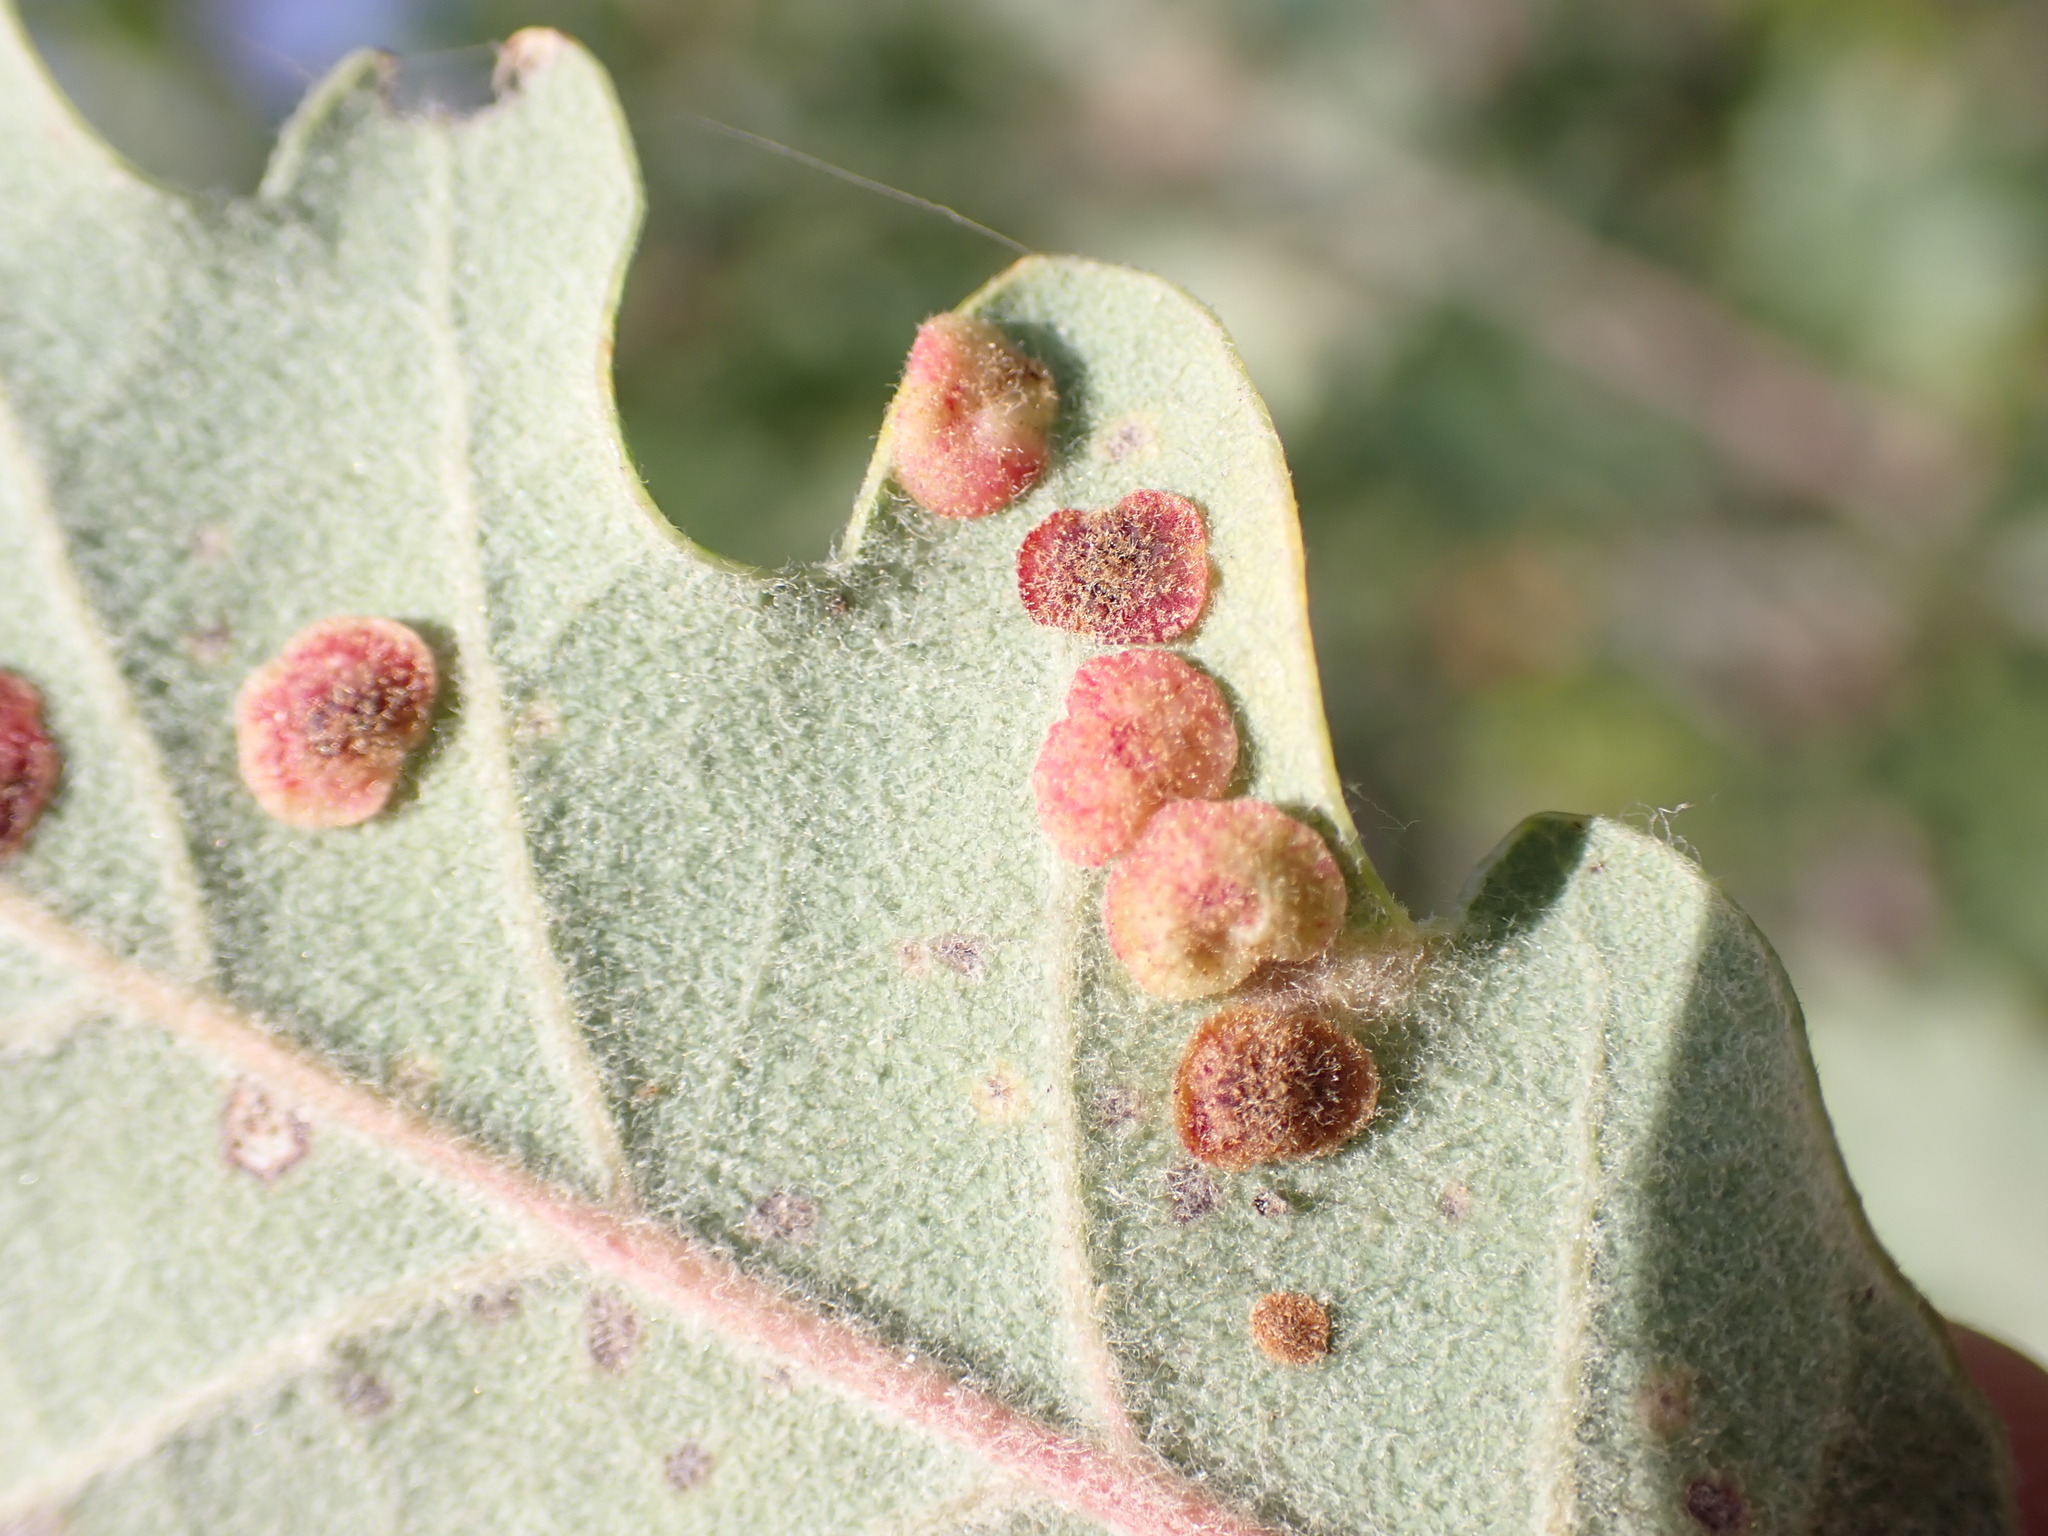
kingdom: Animalia
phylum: Arthropoda
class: Insecta
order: Hymenoptera
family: Cynipidae
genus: Neuroterus
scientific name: Neuroterus quercusbaccarum
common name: Common spangle gall
